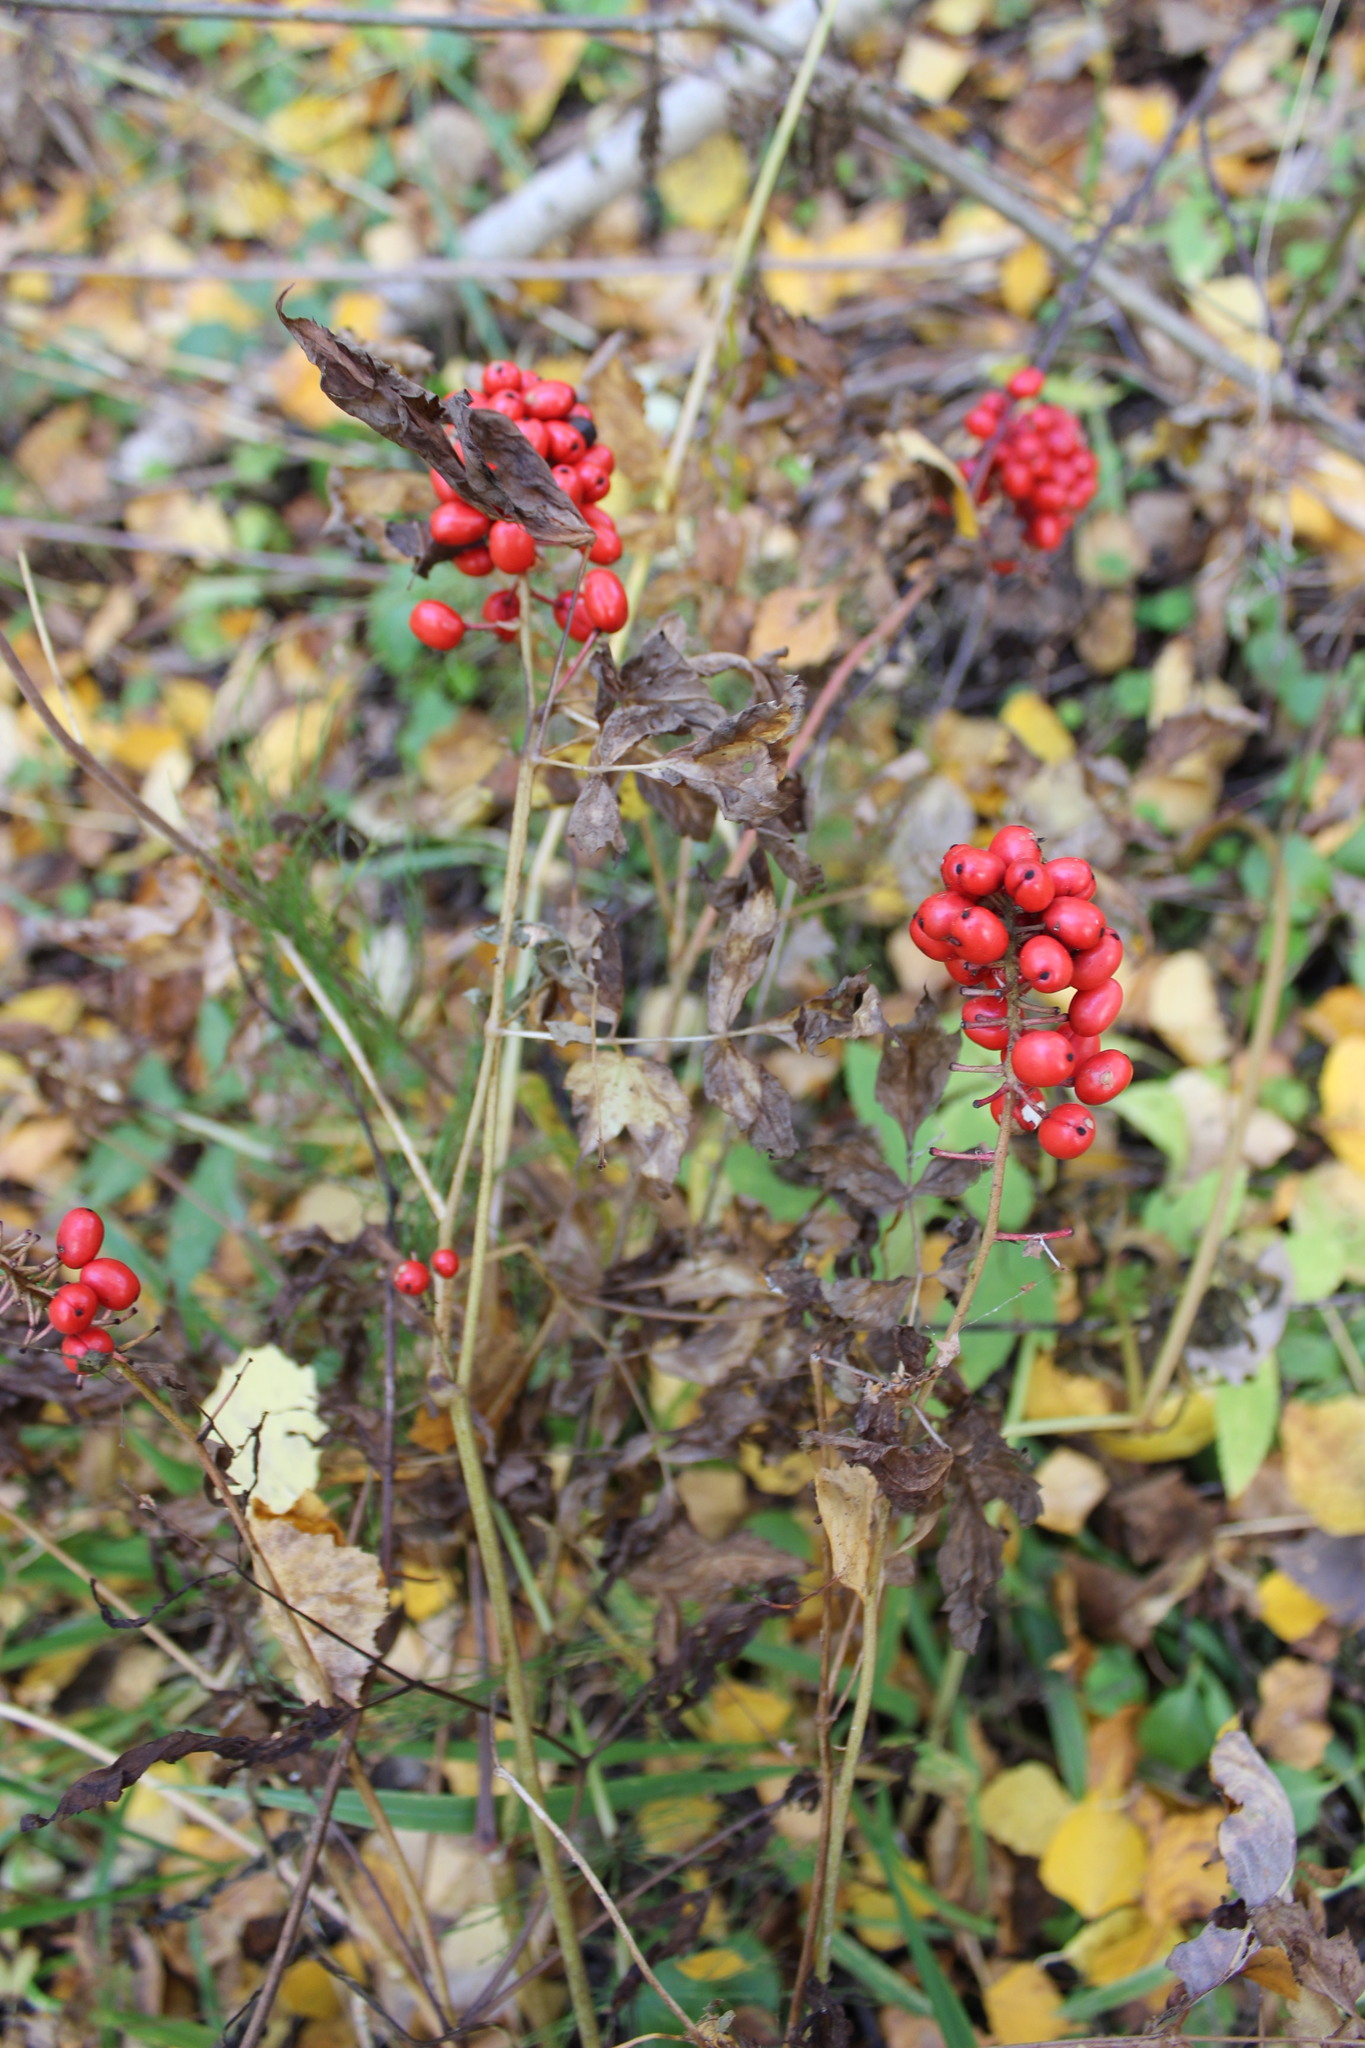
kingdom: Plantae
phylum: Tracheophyta
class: Magnoliopsida
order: Ranunculales
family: Ranunculaceae
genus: Actaea
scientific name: Actaea erythrocarpa
